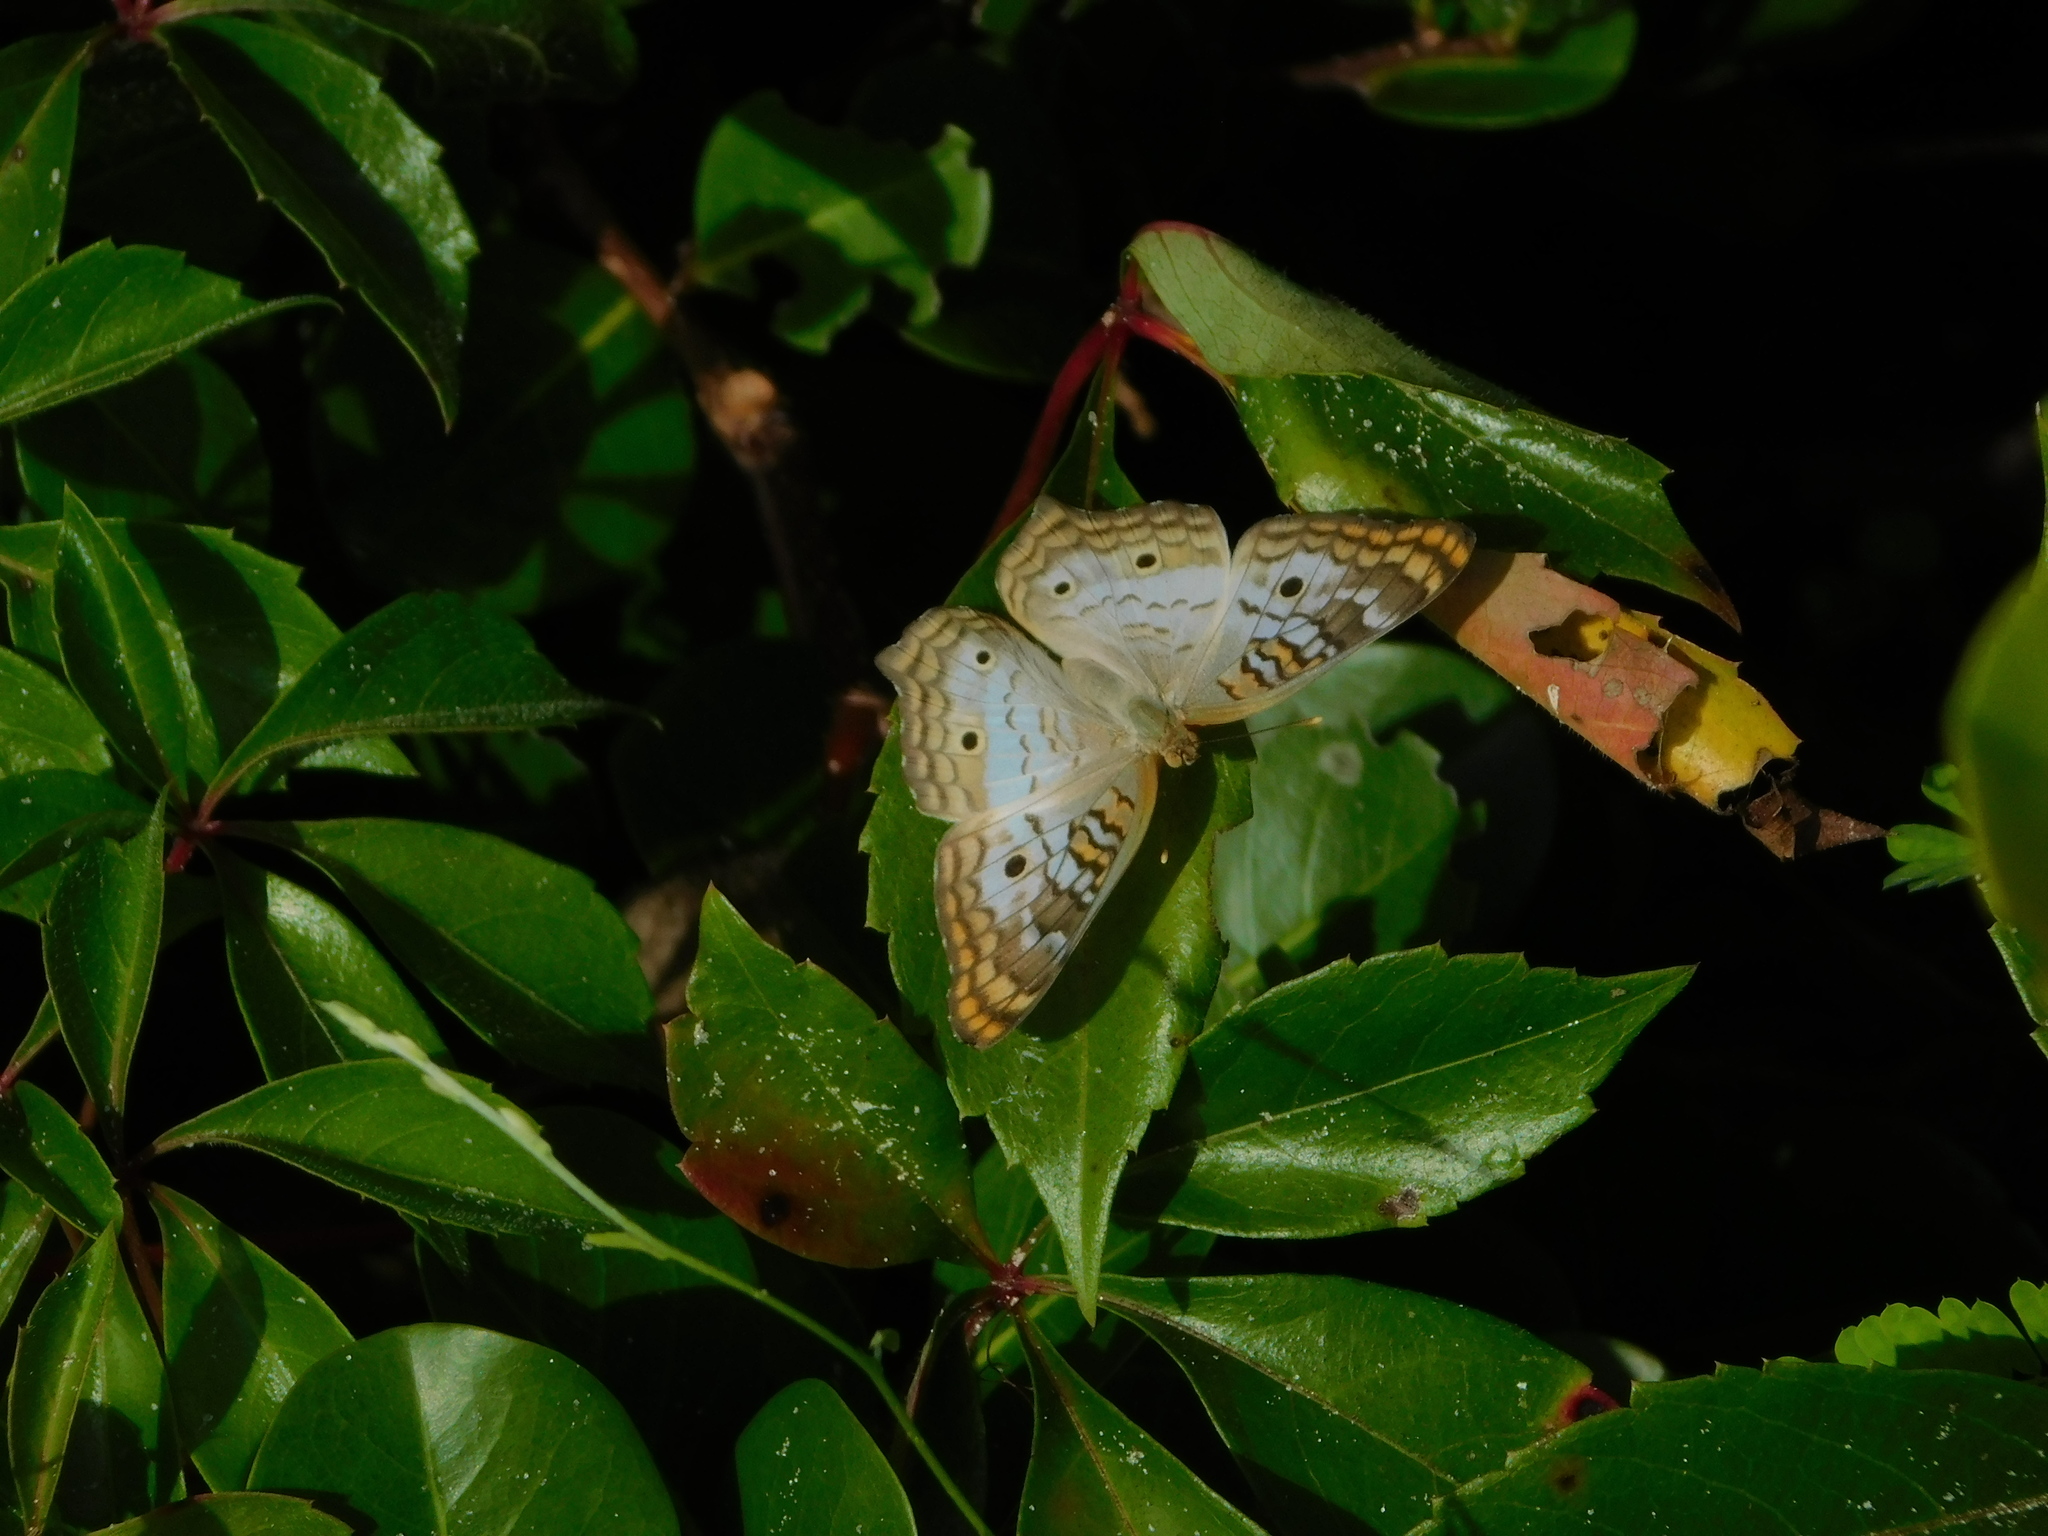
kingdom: Animalia
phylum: Arthropoda
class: Insecta
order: Lepidoptera
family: Nymphalidae
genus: Anartia
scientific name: Anartia jatrophae
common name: White peacock
